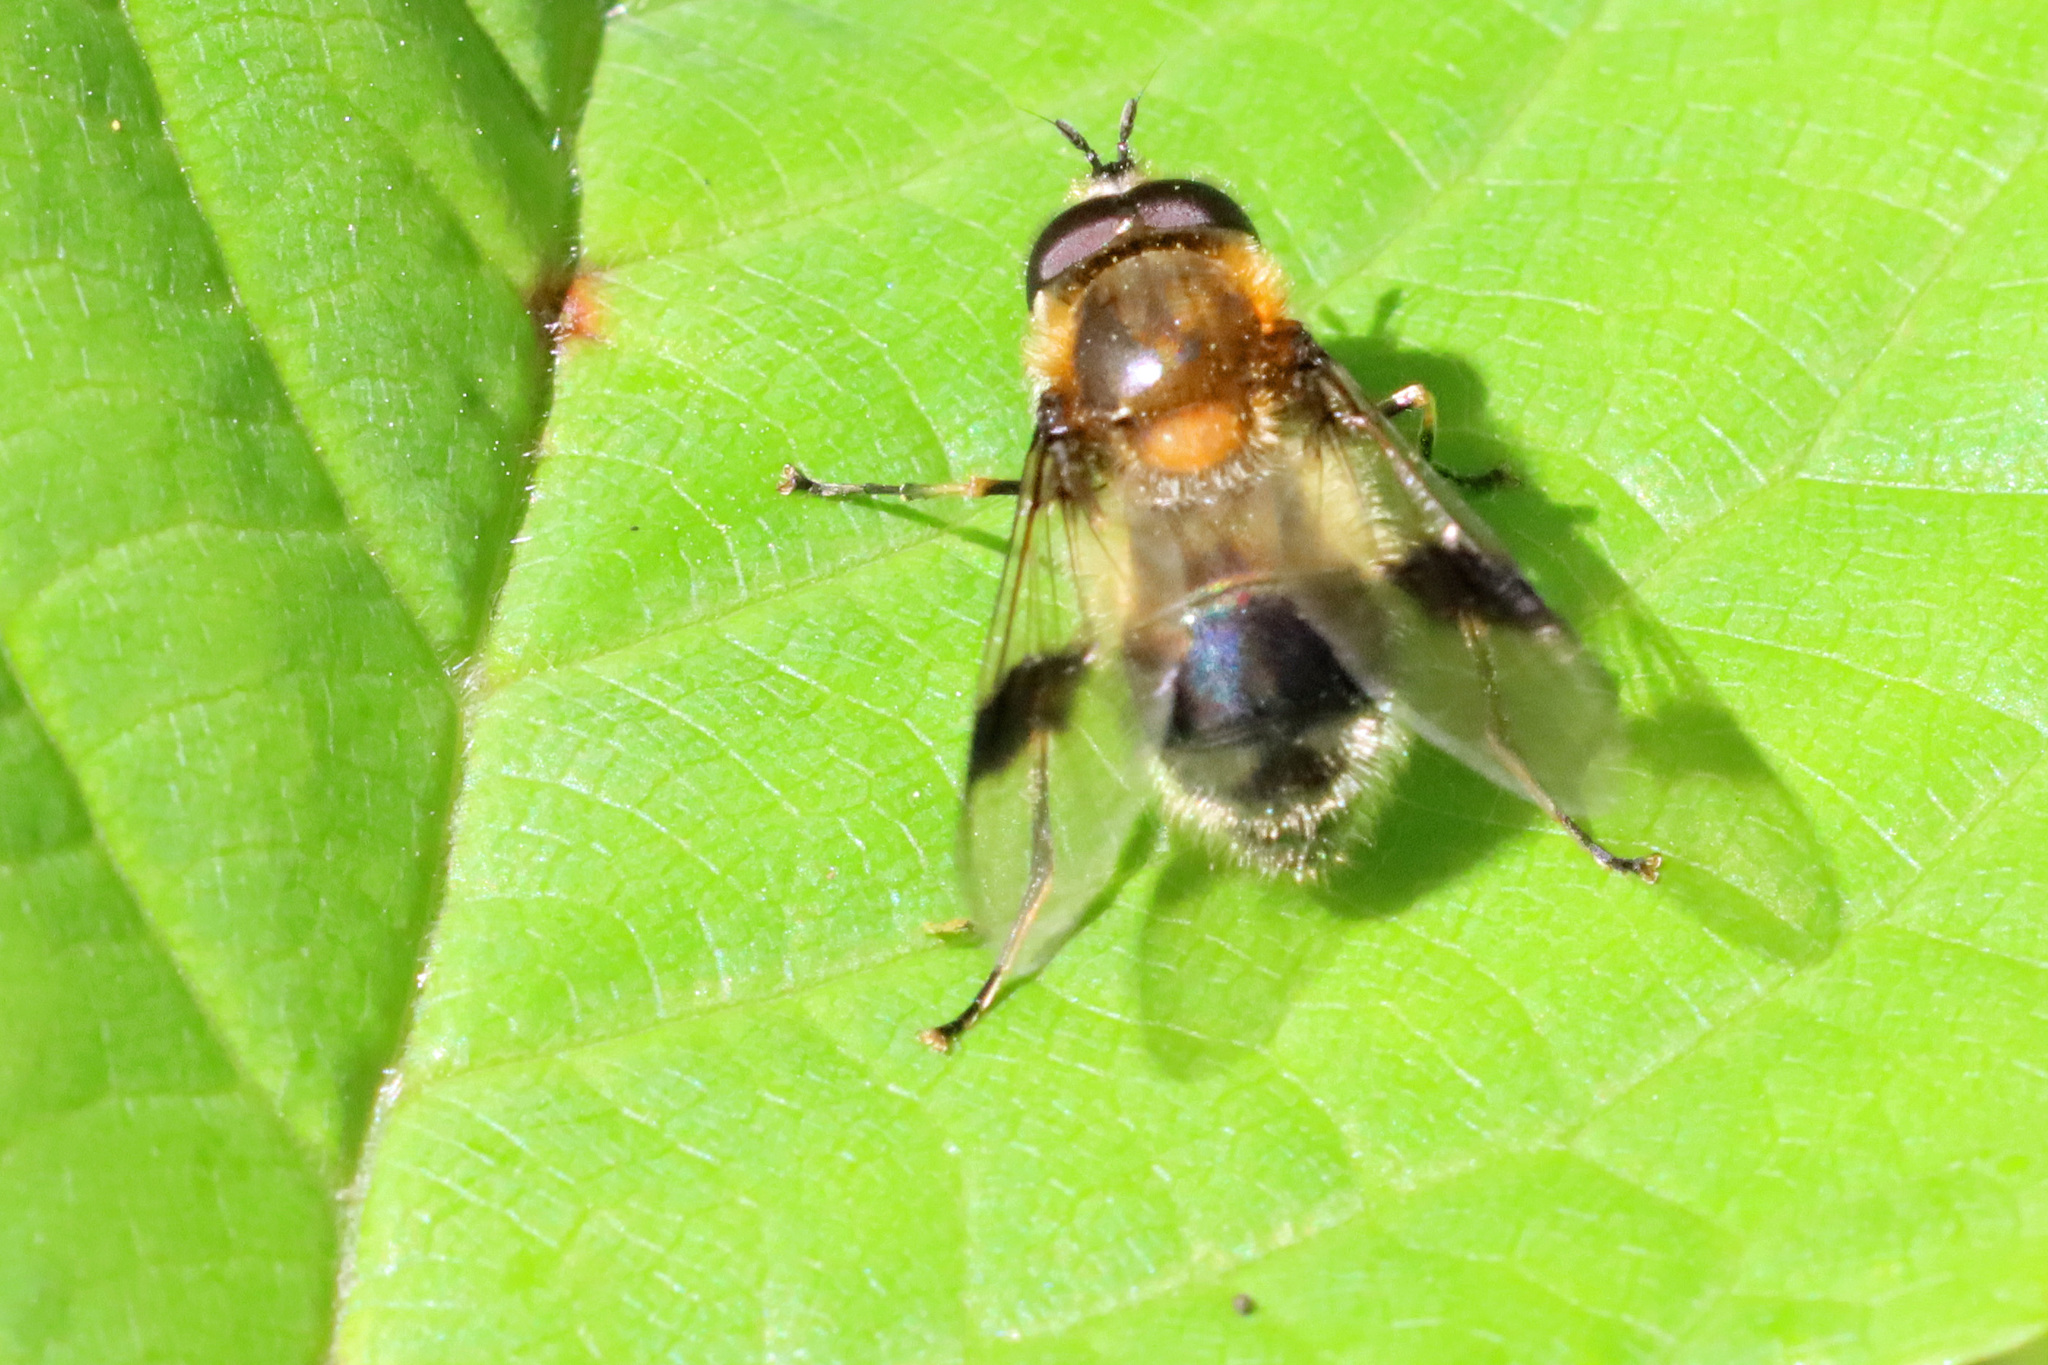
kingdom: Animalia
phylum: Arthropoda
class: Insecta
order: Diptera
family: Syrphidae
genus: Leucozona
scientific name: Leucozona lucorum
